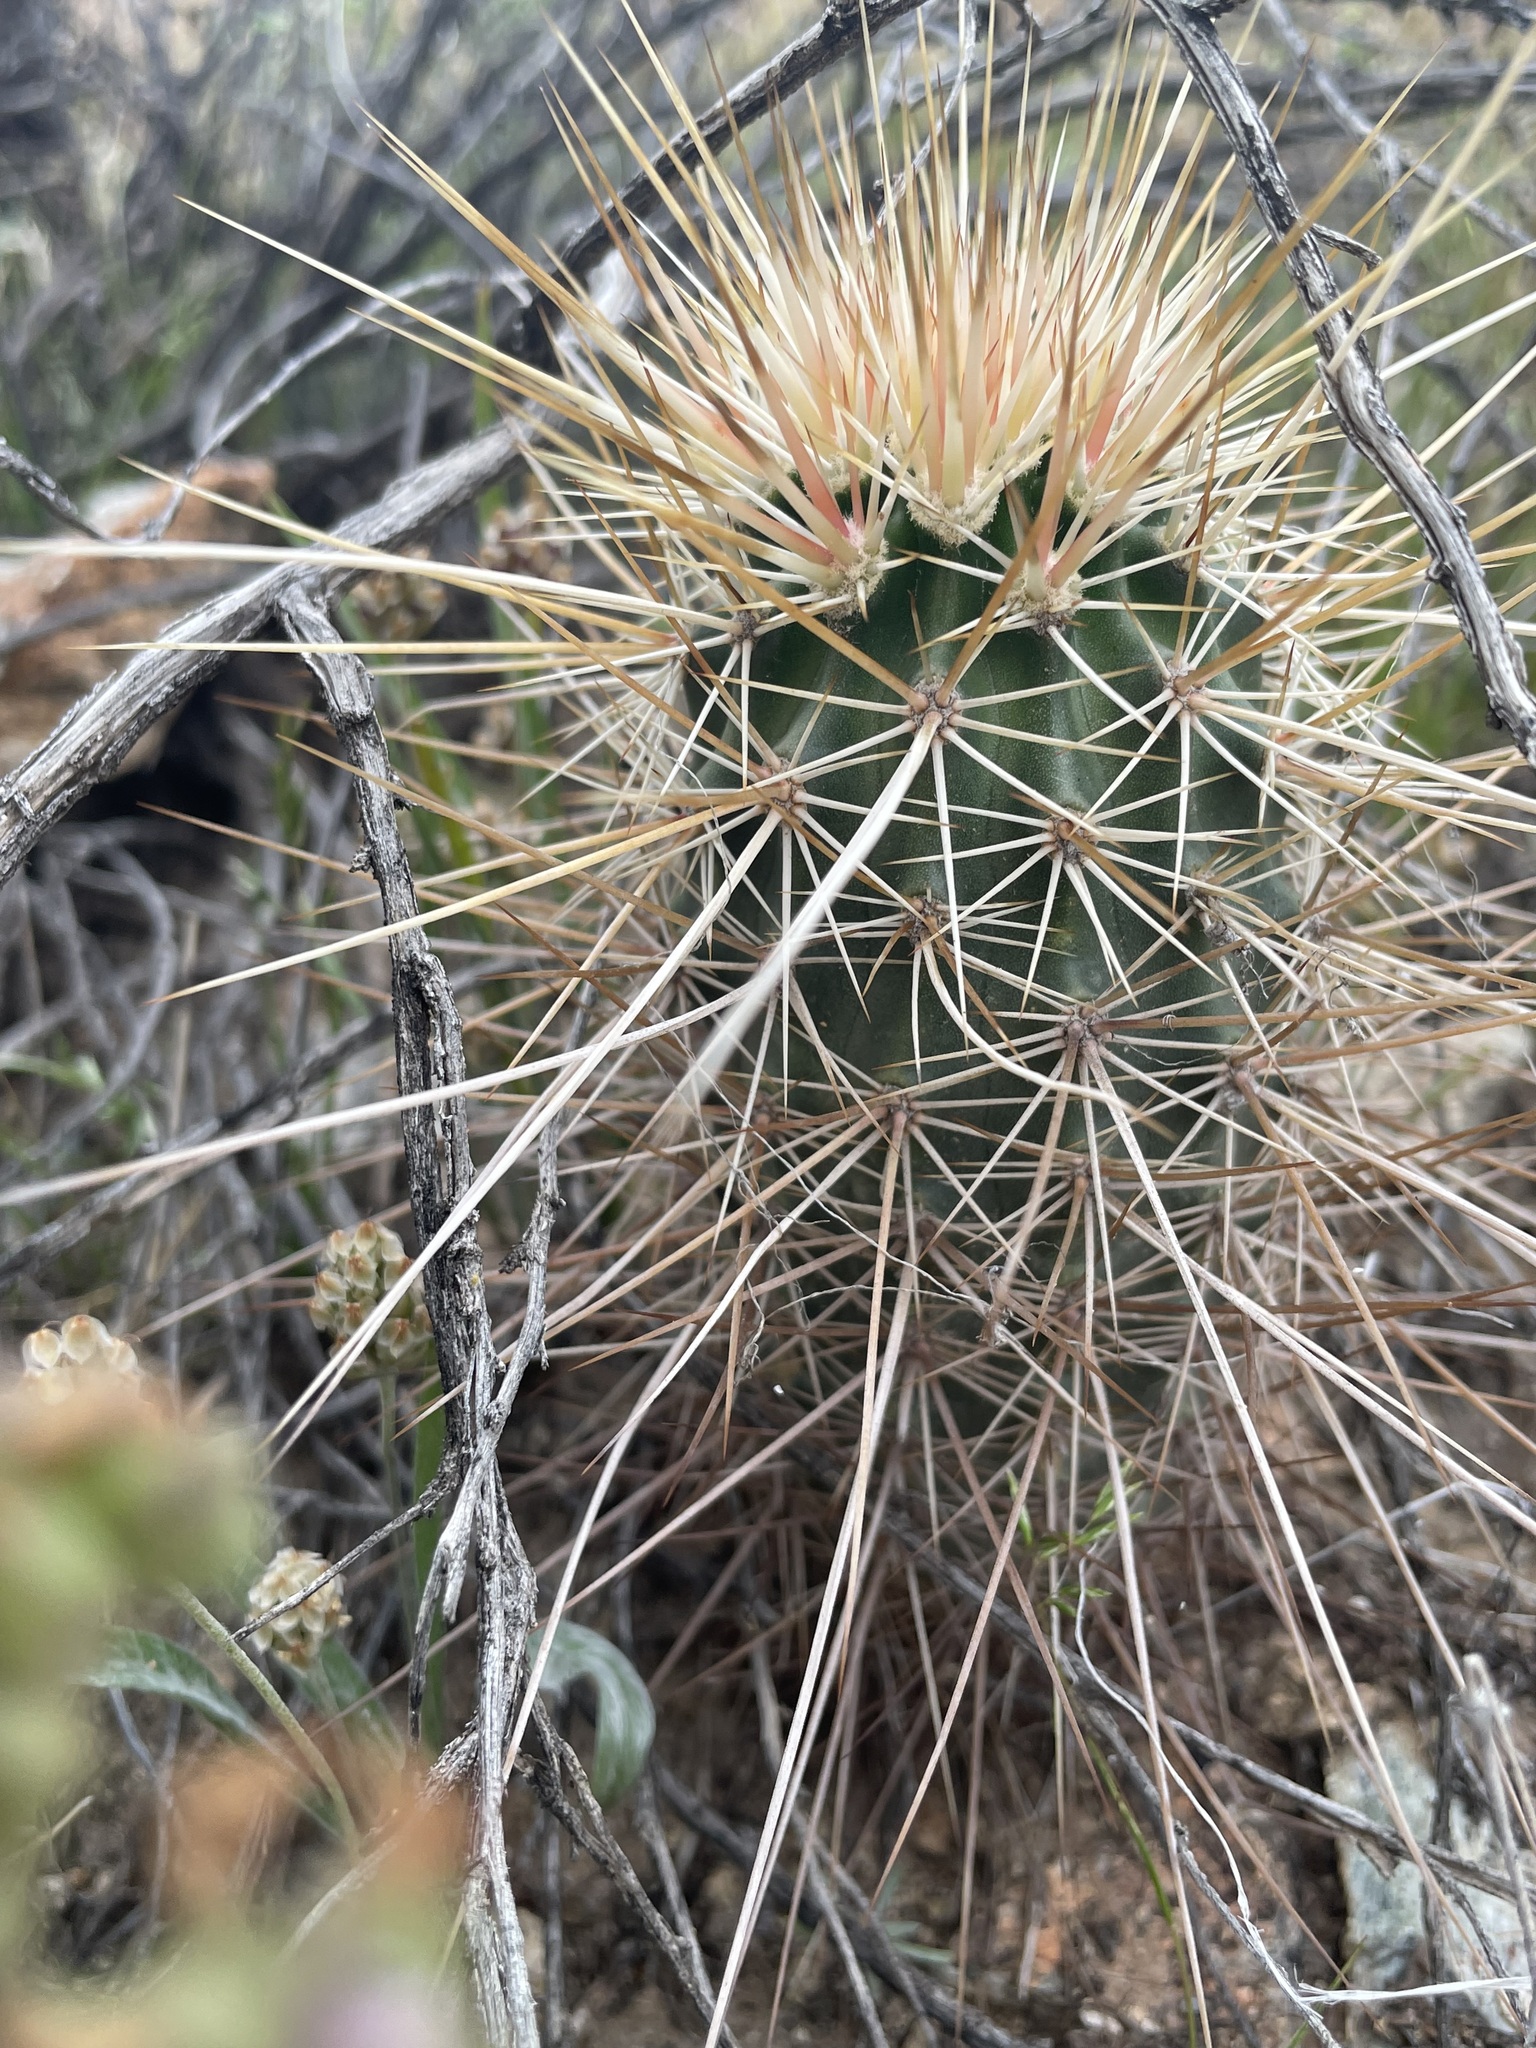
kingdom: Plantae
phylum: Tracheophyta
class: Magnoliopsida
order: Caryophyllales
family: Cactaceae
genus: Echinocereus
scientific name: Echinocereus engelmannii
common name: Engelmann's hedgehog cactus
